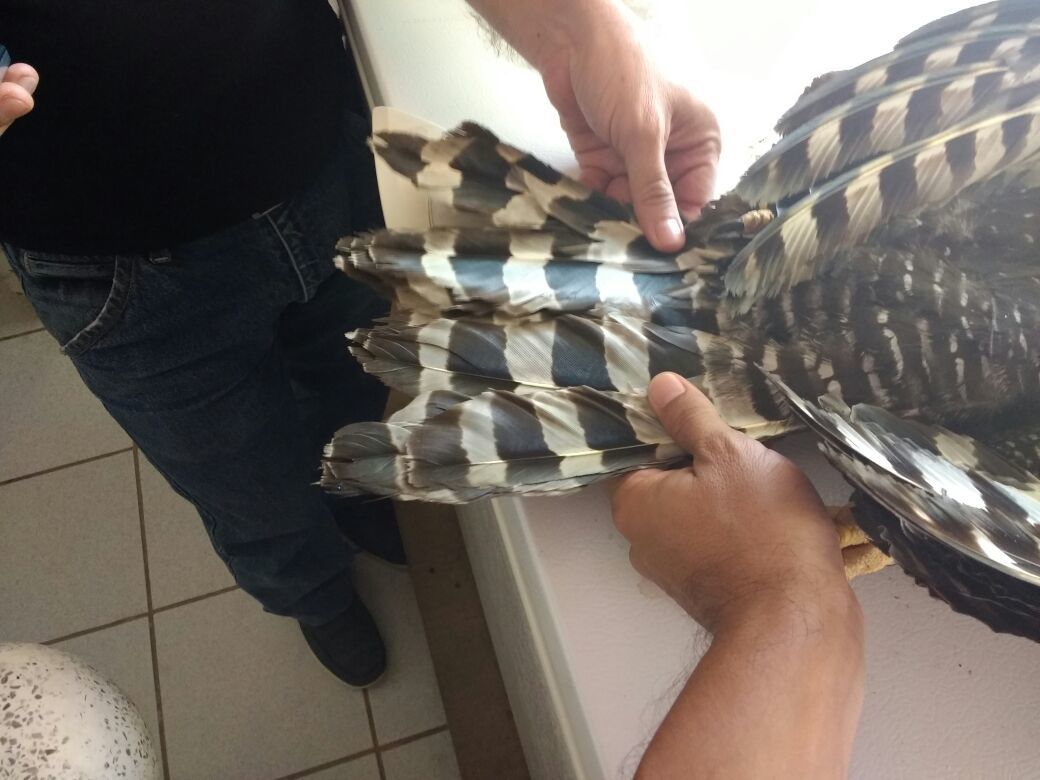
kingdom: Animalia
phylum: Chordata
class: Aves
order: Accipitriformes
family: Accipitridae
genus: Spizaetus
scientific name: Spizaetus tyrannus
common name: Black hawk-eagle
